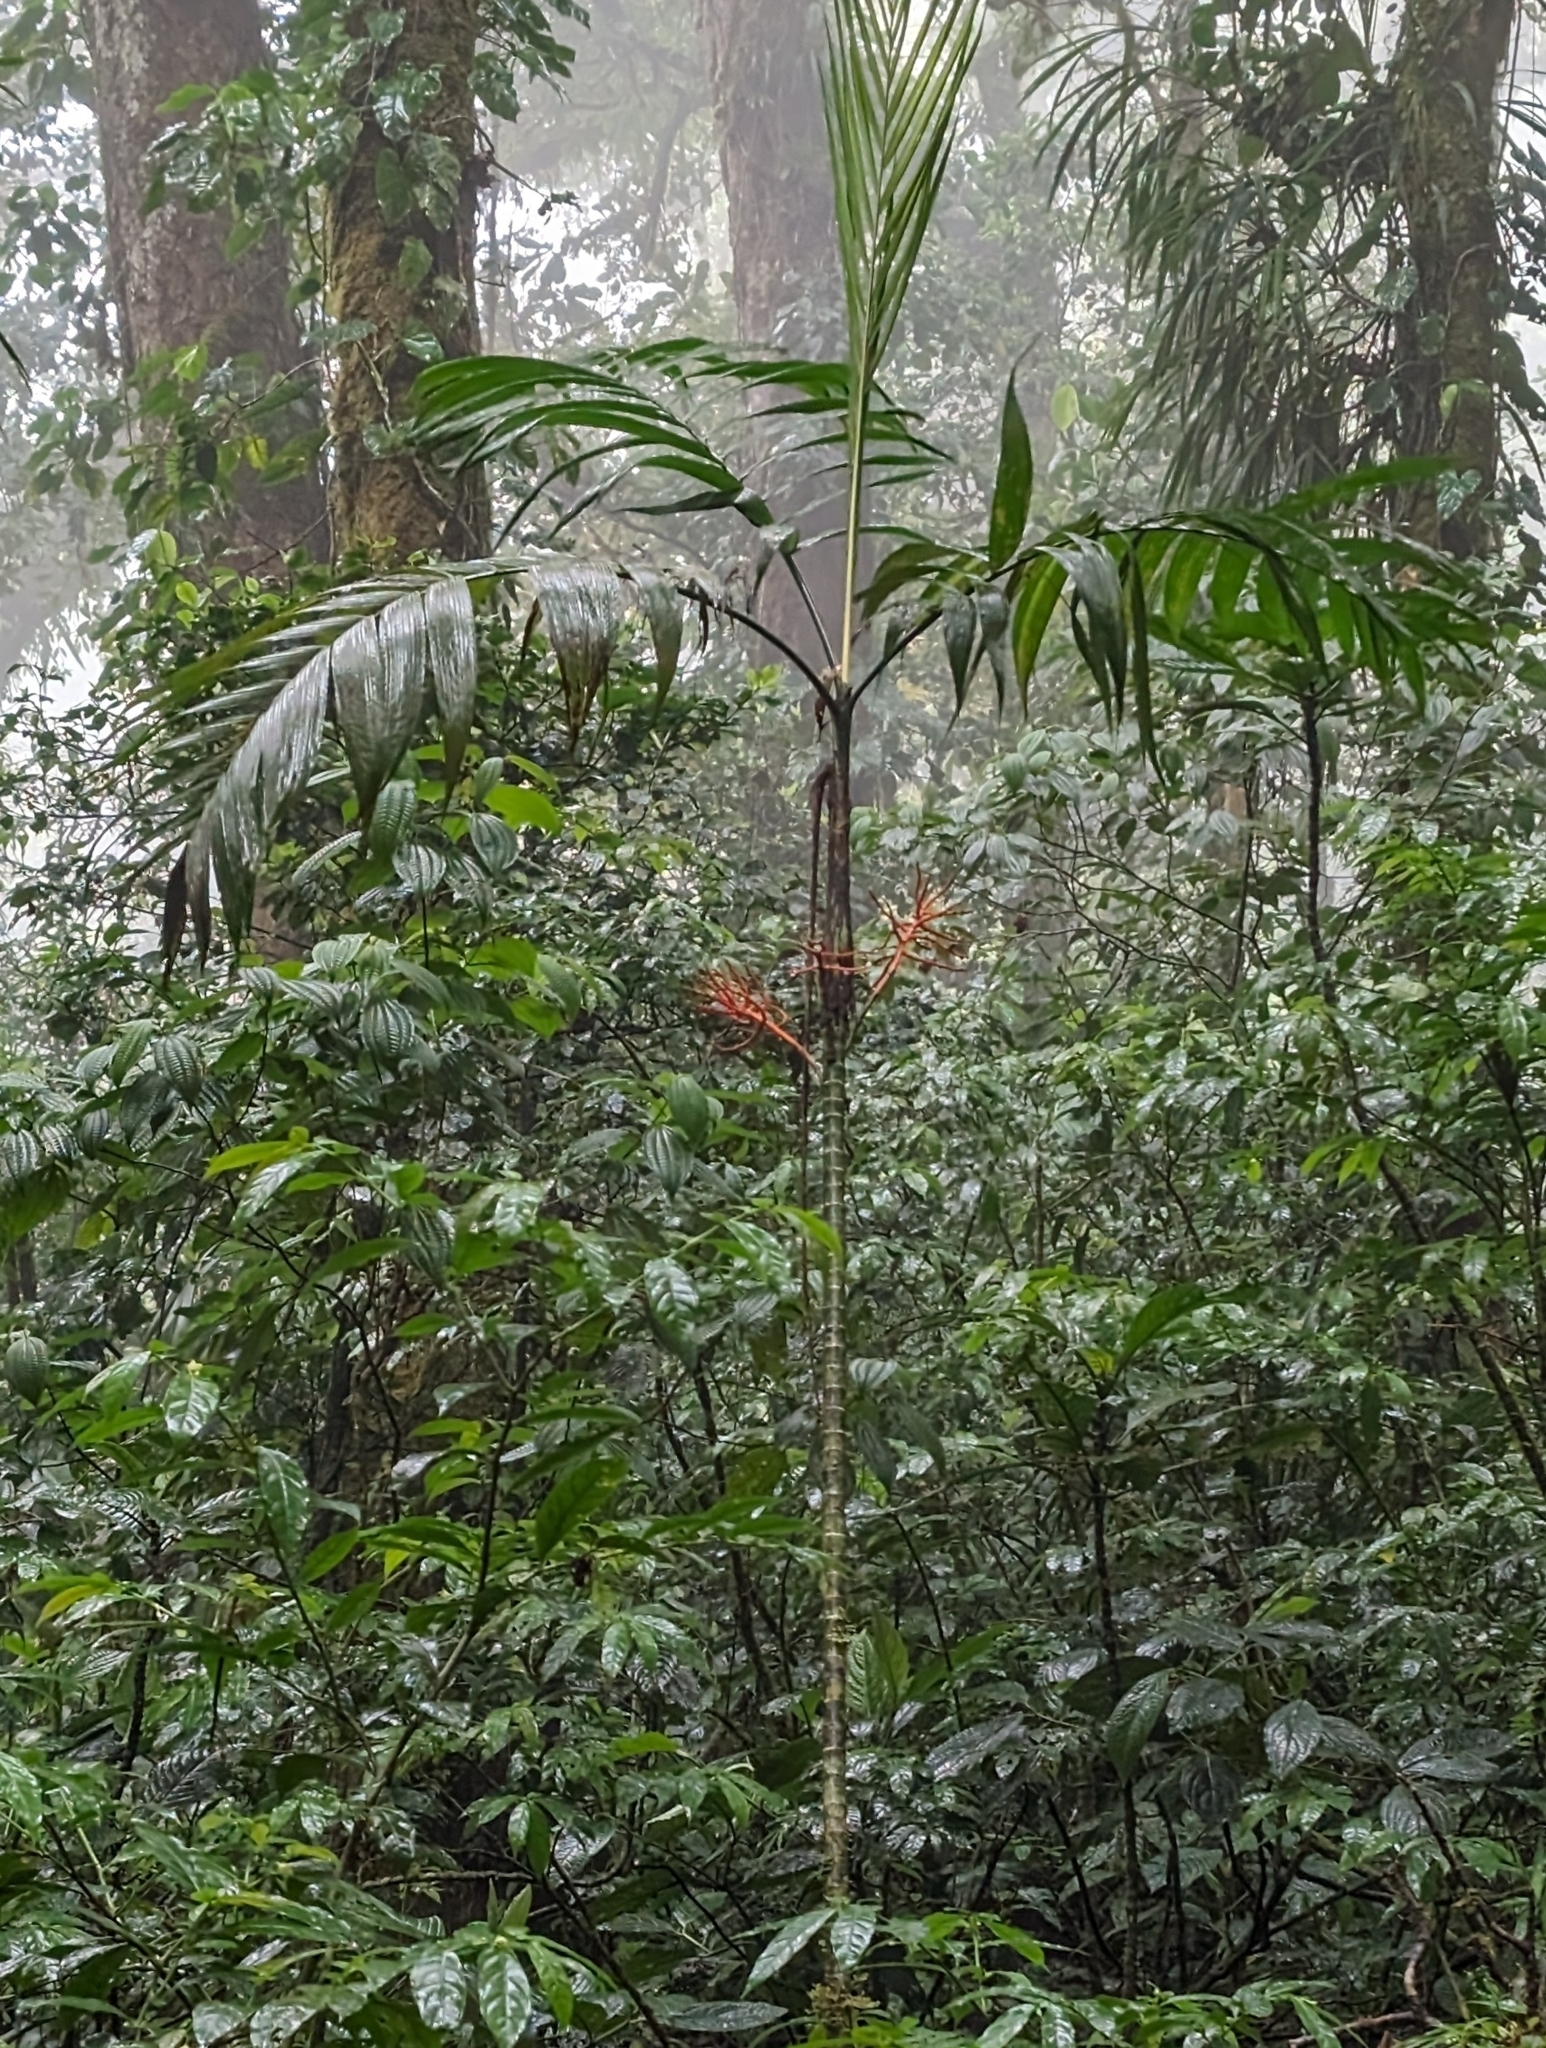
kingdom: Plantae
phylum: Tracheophyta
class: Liliopsida
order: Arecales
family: Arecaceae
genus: Chamaedorea
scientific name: Chamaedorea tepejilote
